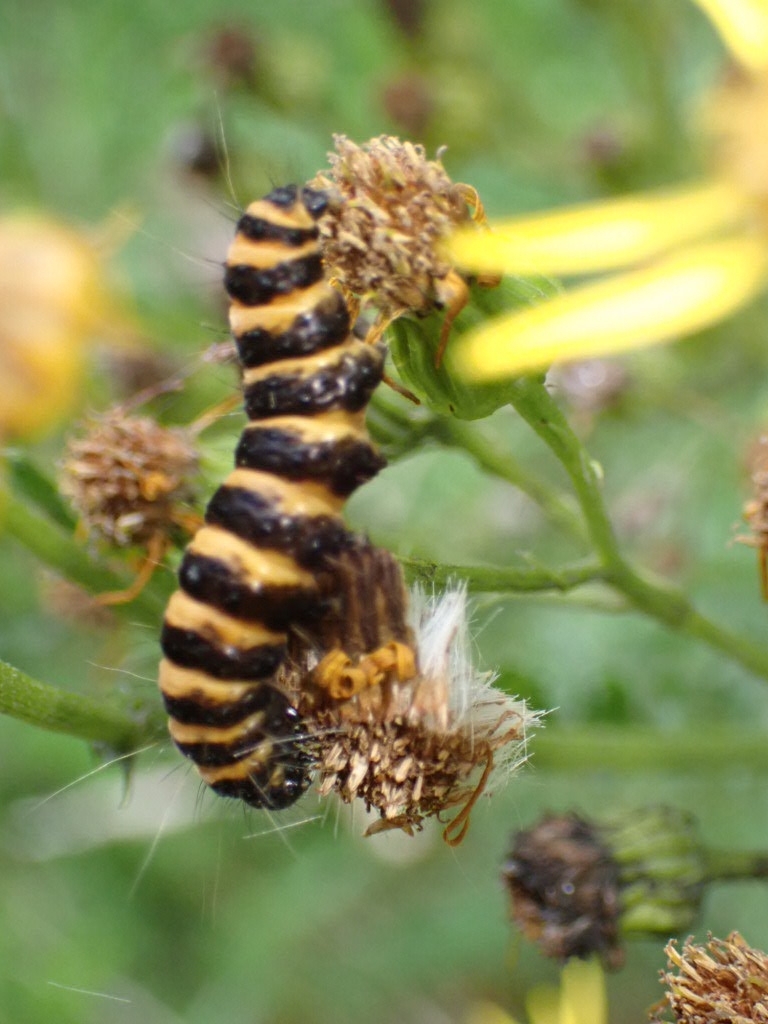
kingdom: Animalia
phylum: Arthropoda
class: Insecta
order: Lepidoptera
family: Erebidae
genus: Tyria
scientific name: Tyria jacobaeae
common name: Cinnabar
